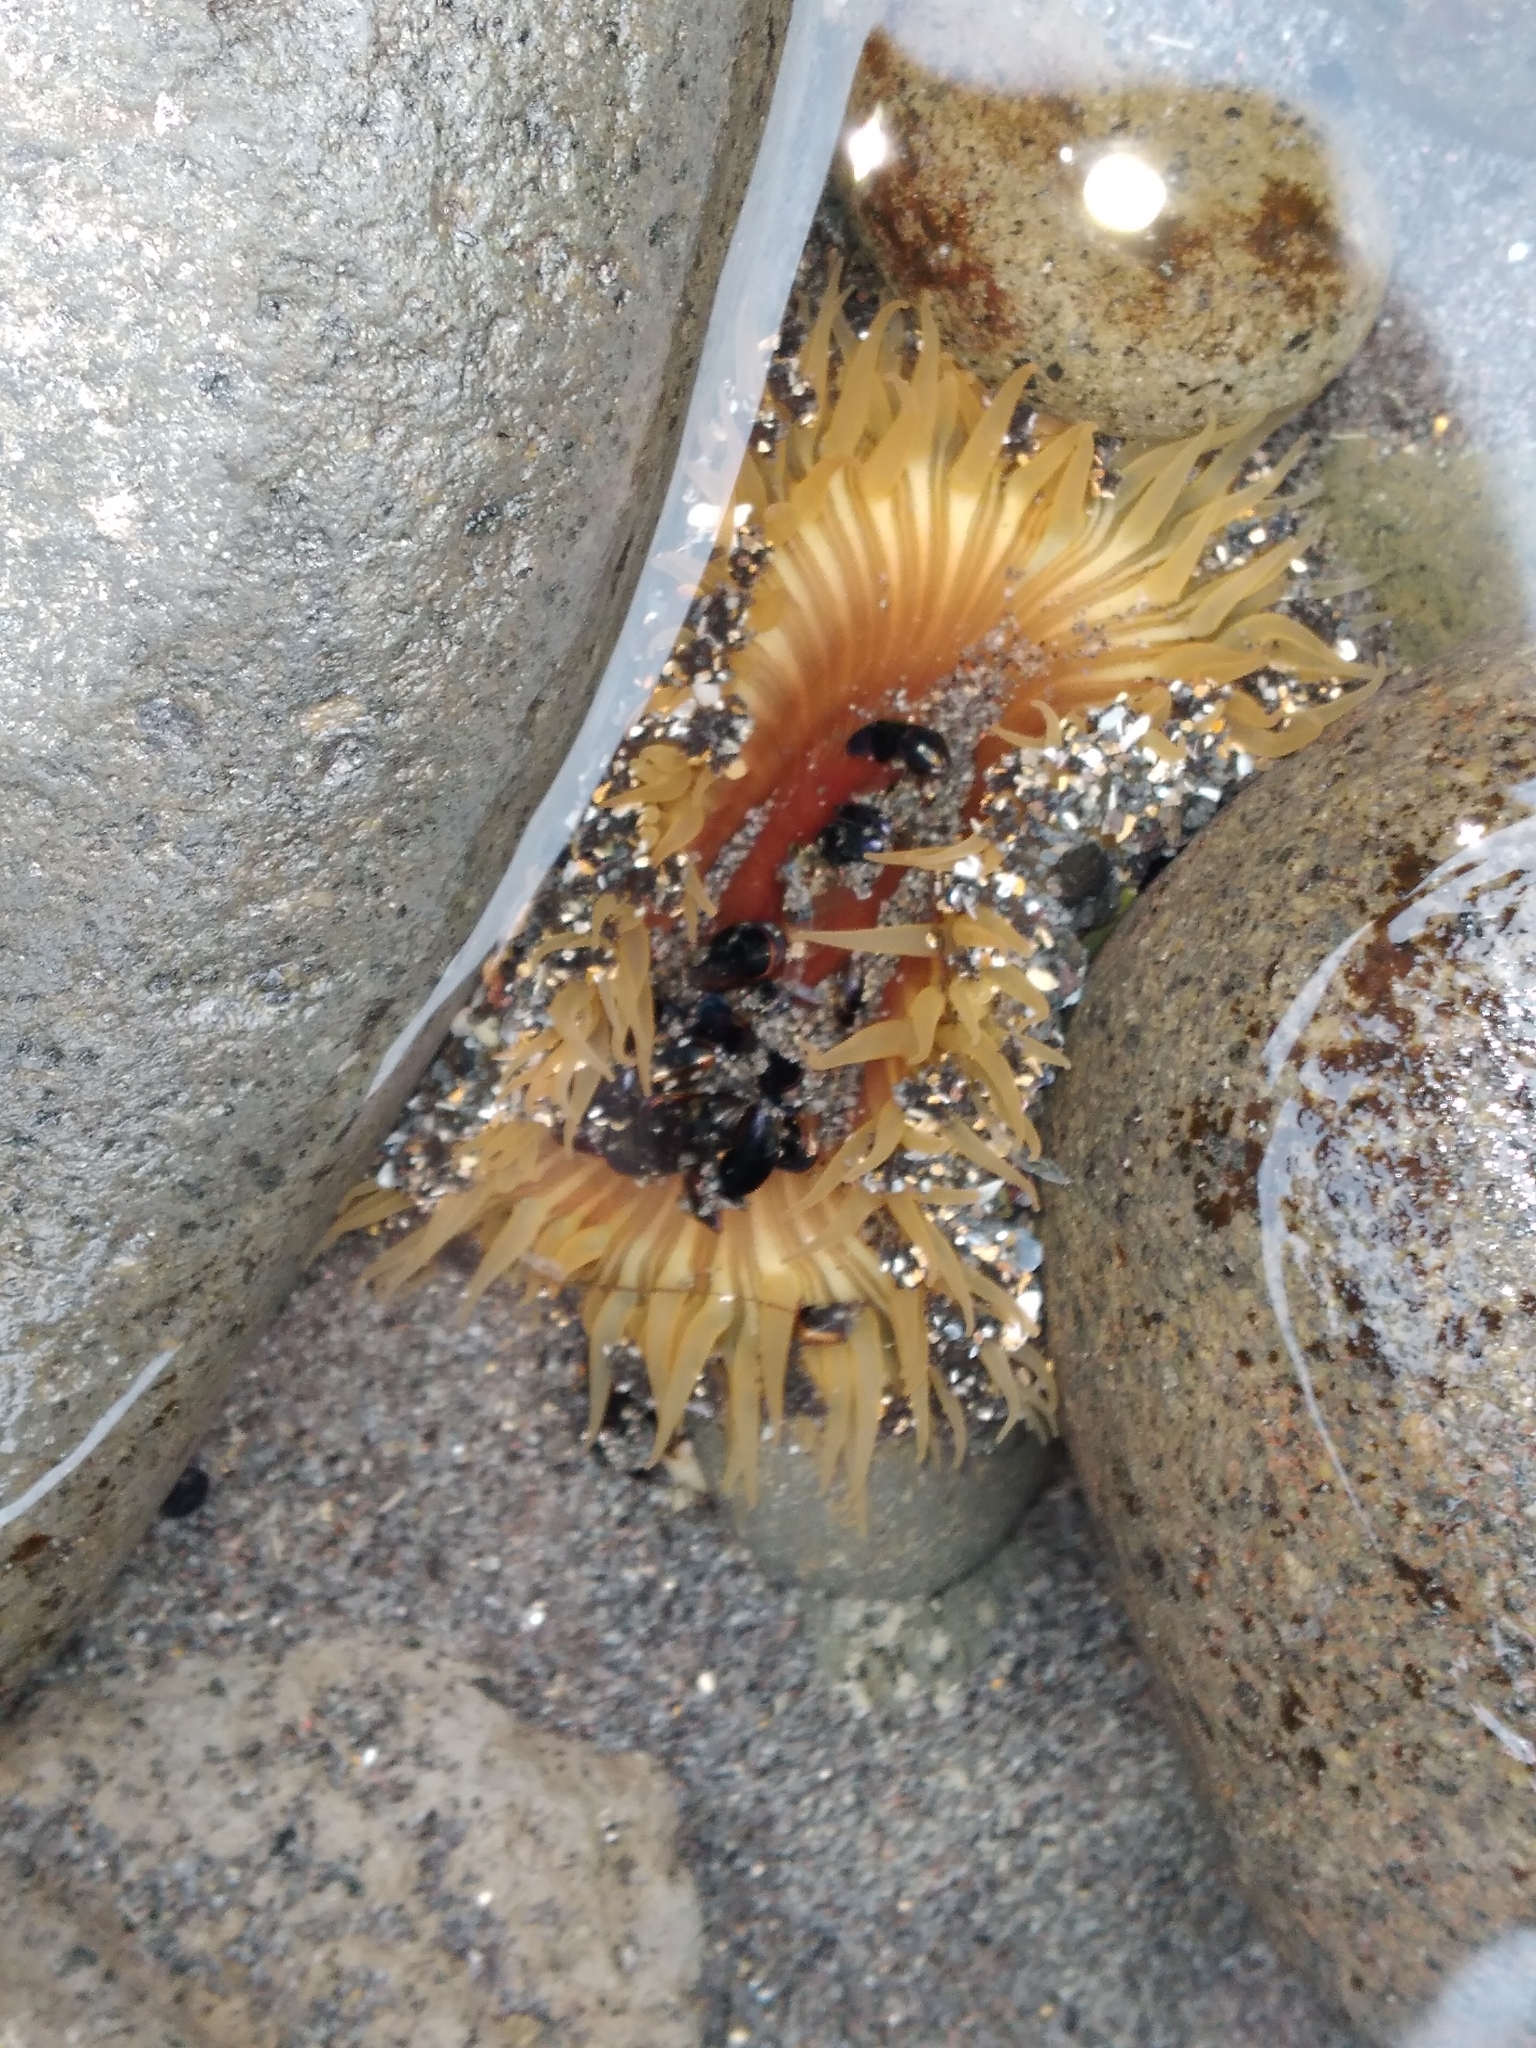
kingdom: Animalia
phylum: Cnidaria
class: Anthozoa
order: Actiniaria
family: Actiniidae
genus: Oulactis
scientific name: Oulactis magna
